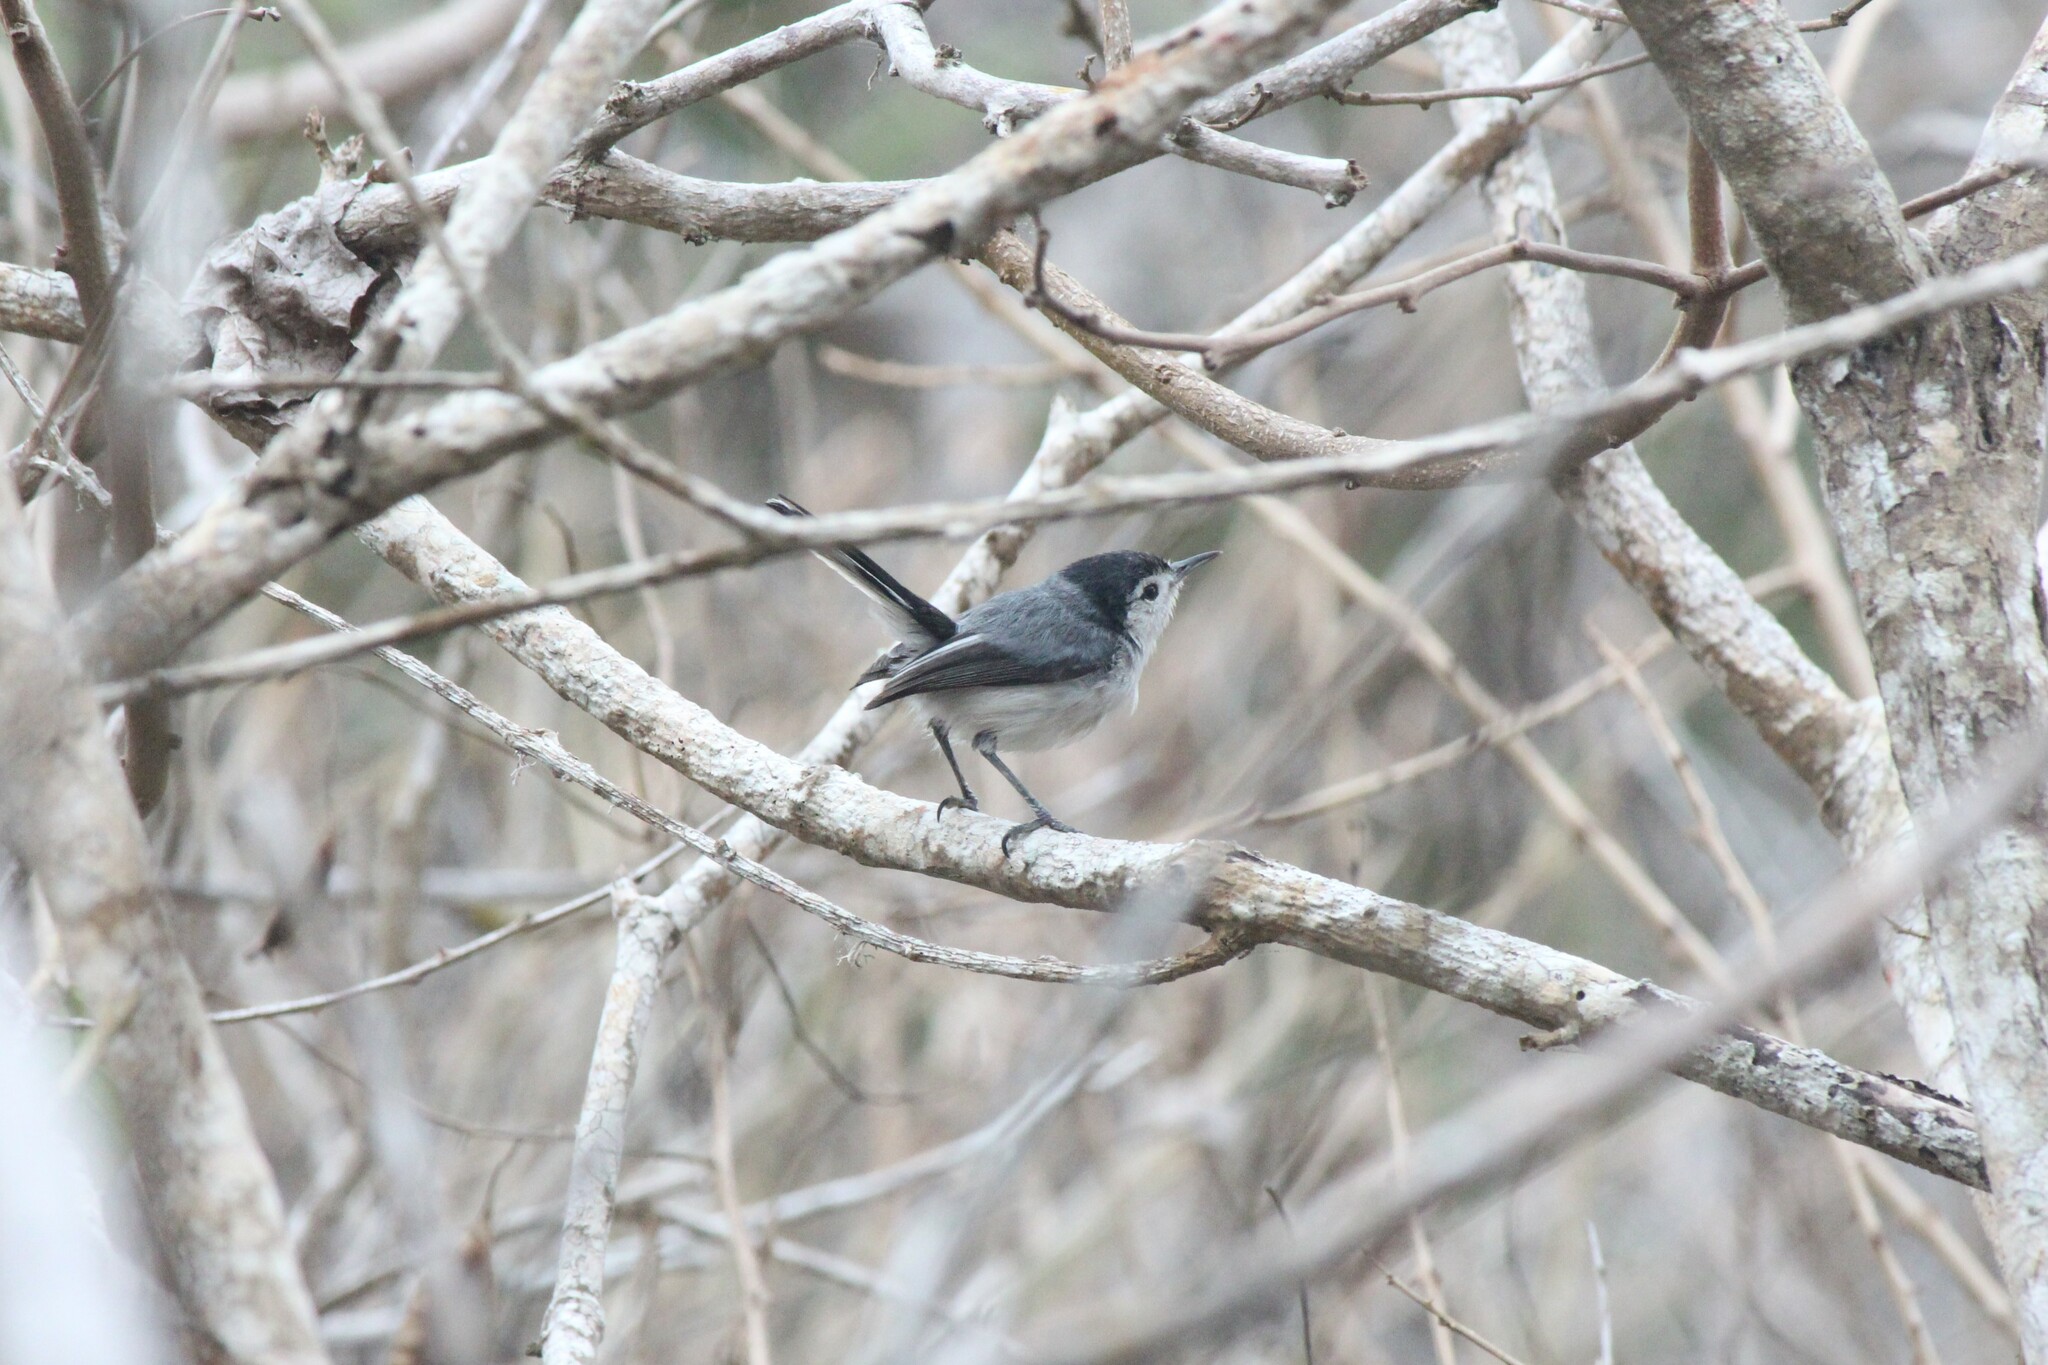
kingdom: Animalia
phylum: Chordata
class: Aves
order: Passeriformes
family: Polioptilidae
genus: Polioptila
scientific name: Polioptila plumbea
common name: Tropical gnatcatcher
